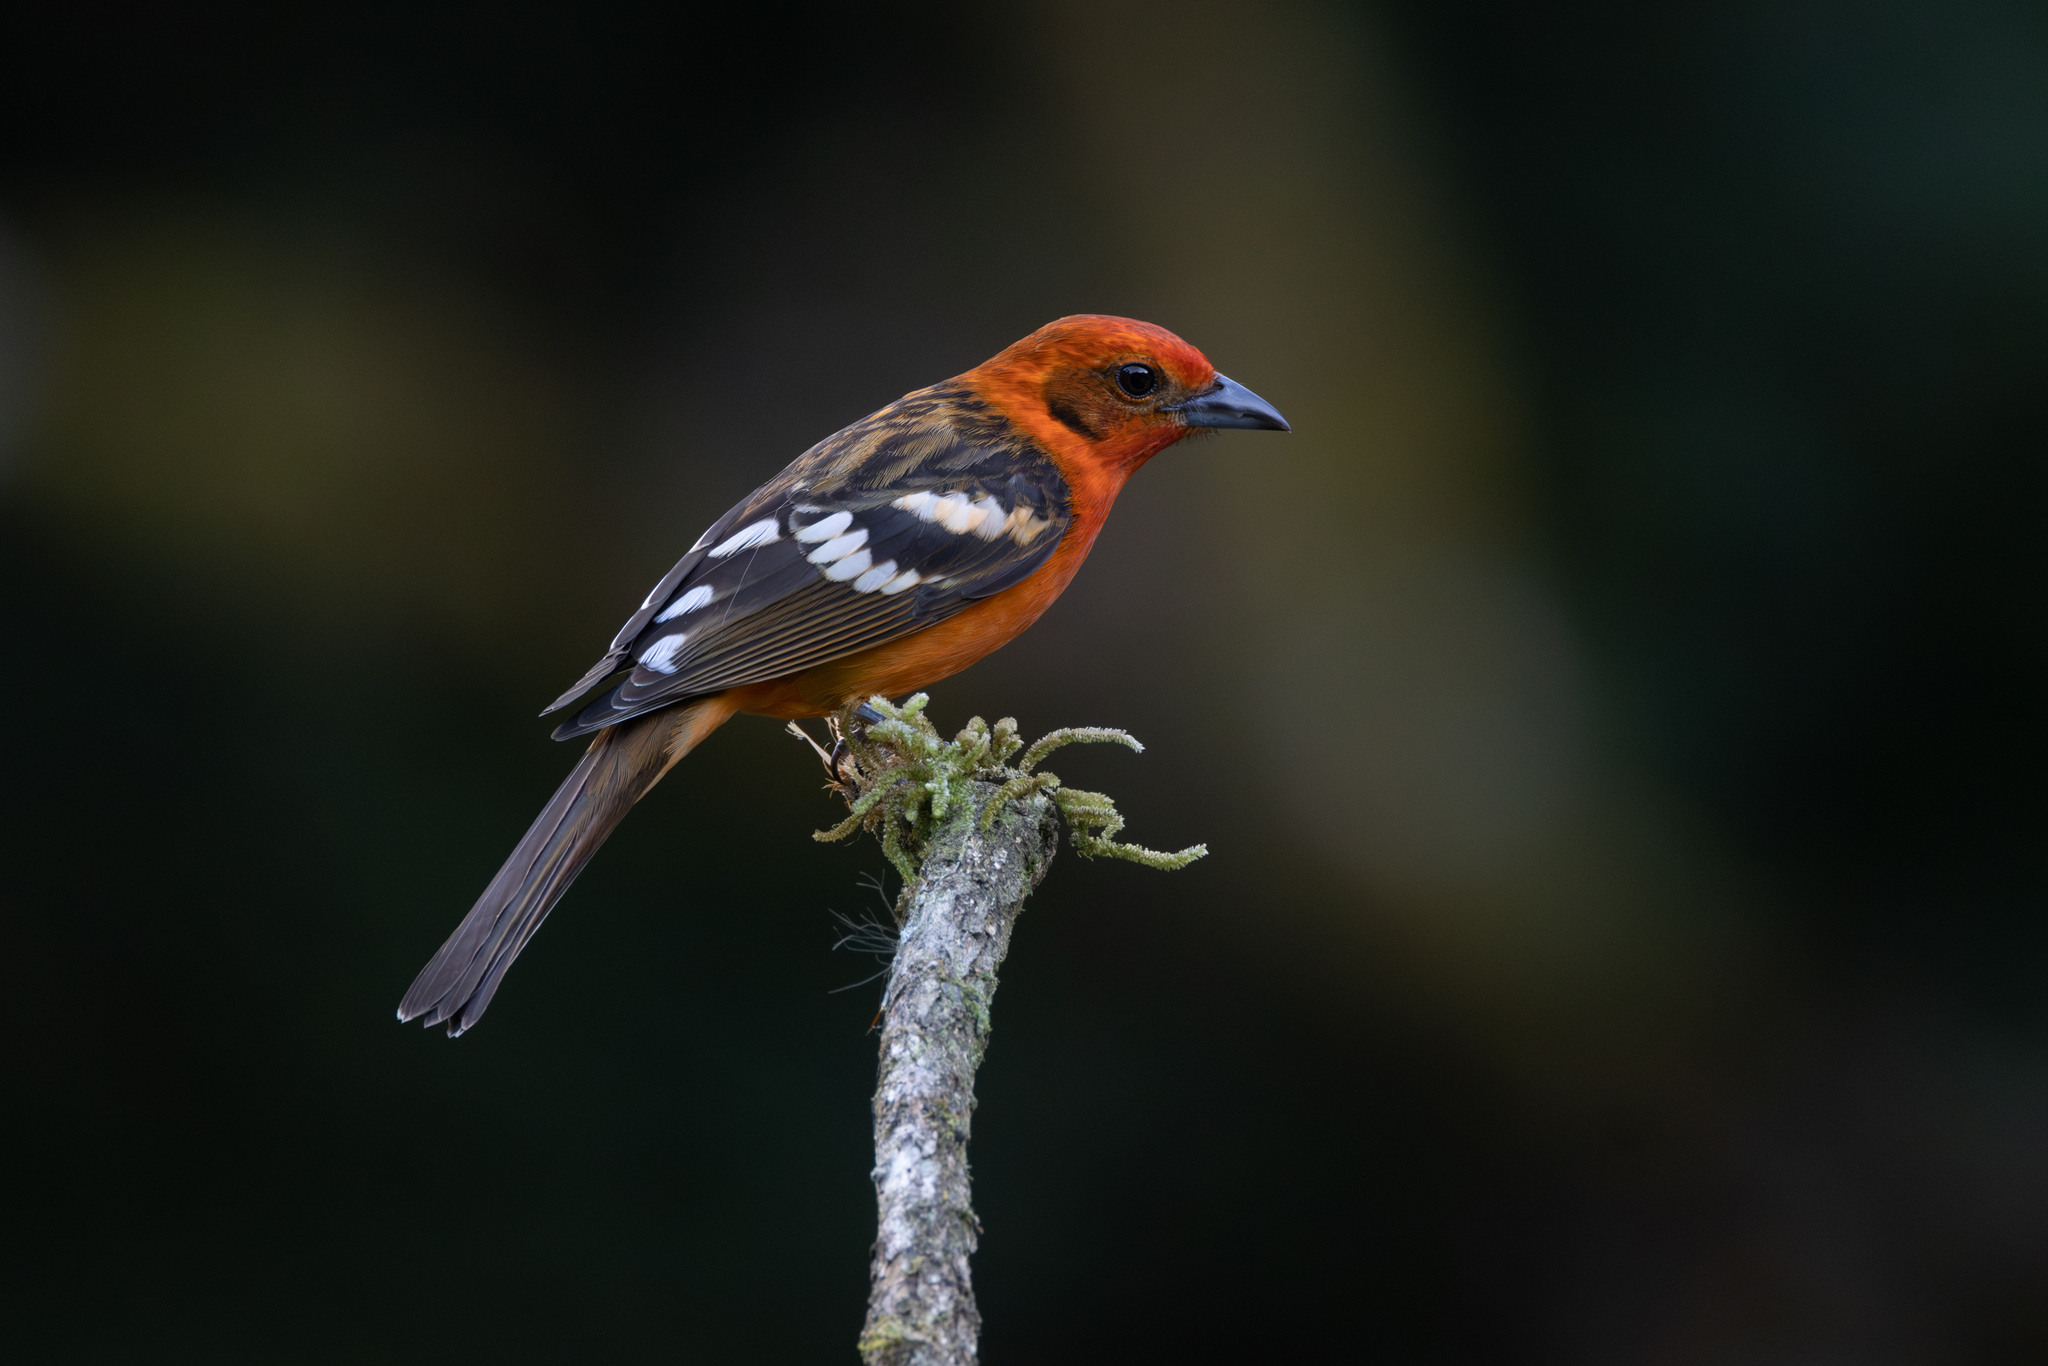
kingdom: Animalia
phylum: Chordata
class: Aves
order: Passeriformes
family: Cardinalidae
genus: Piranga
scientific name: Piranga bidentata
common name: Flame-colored tanager
